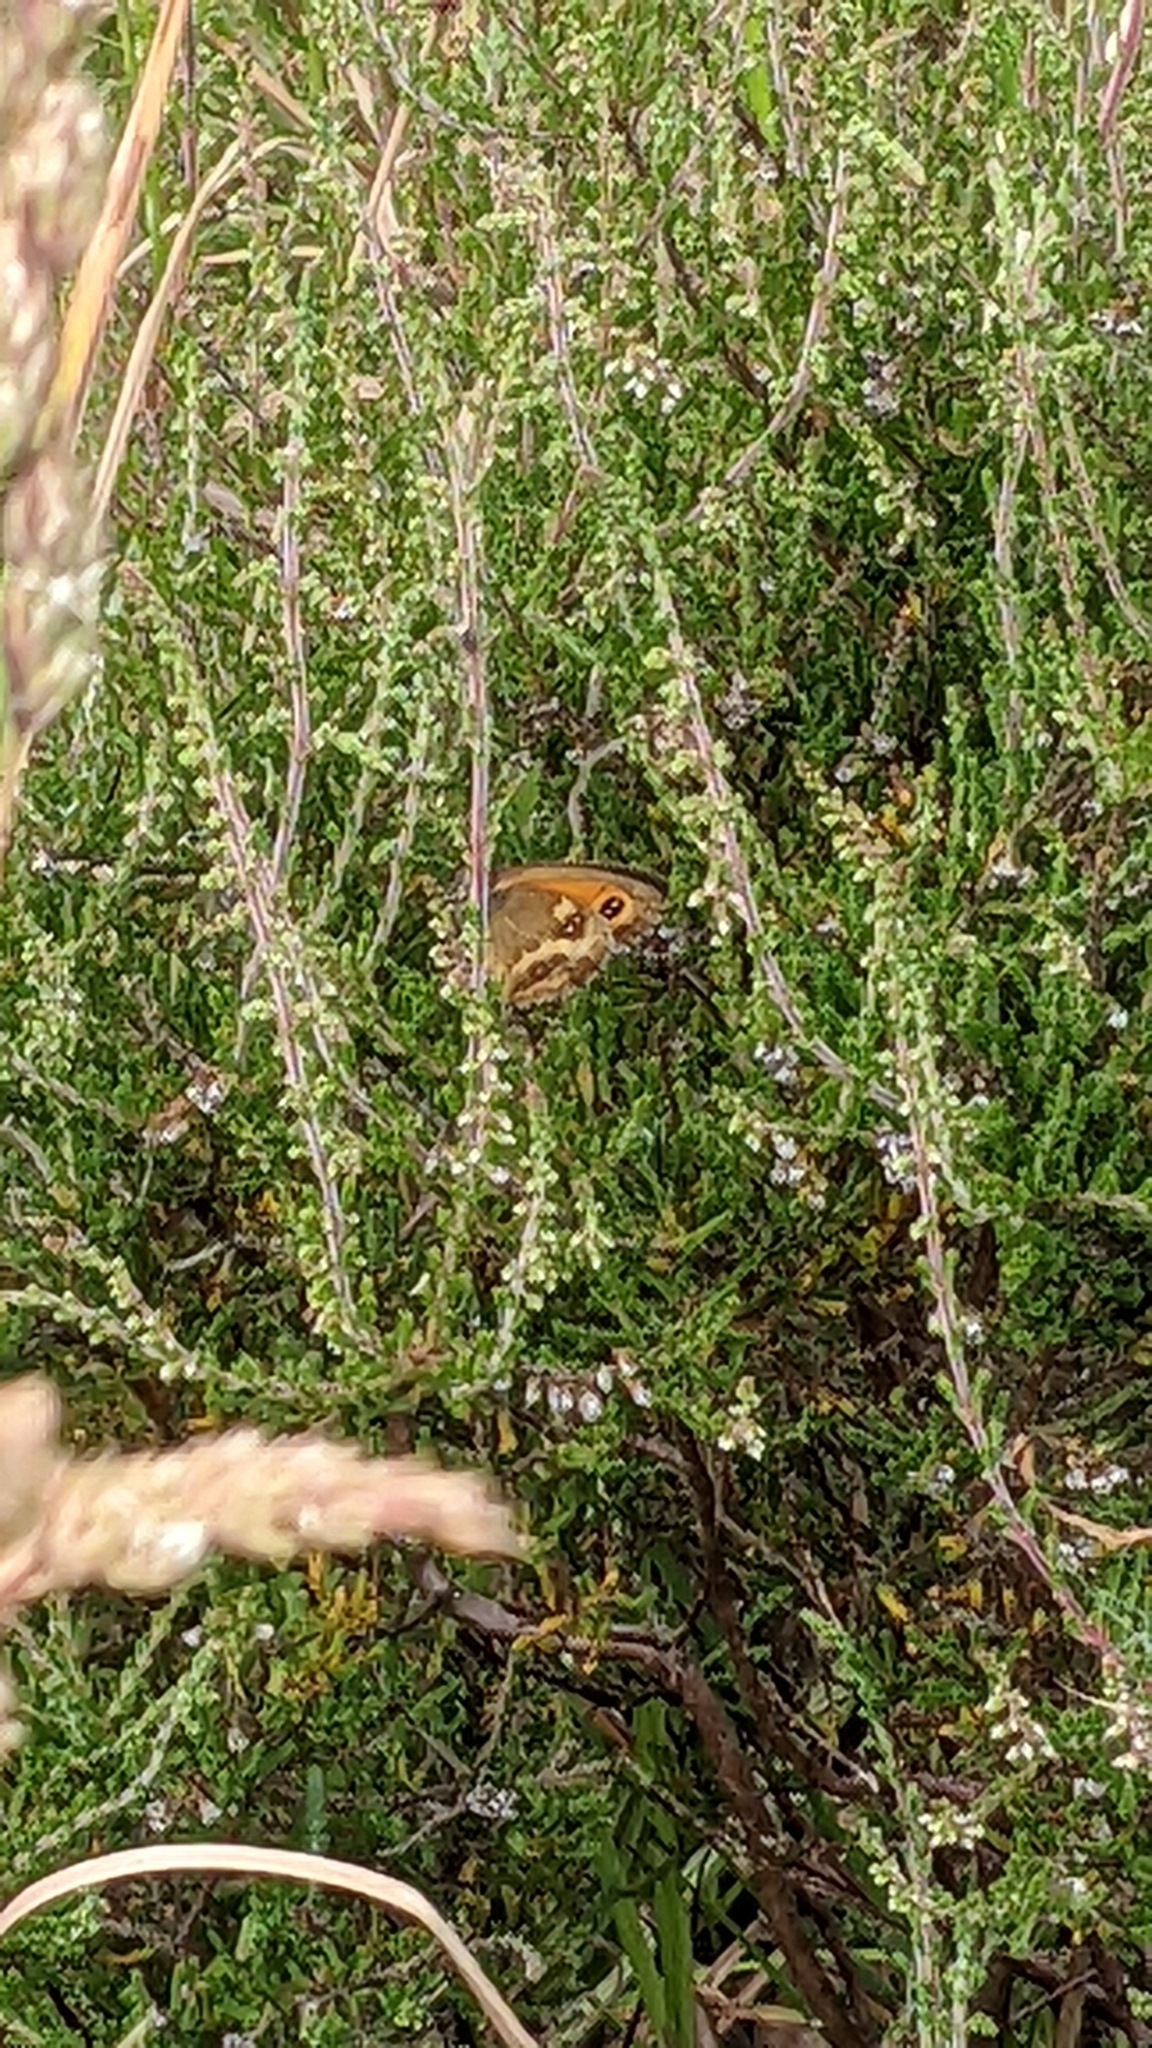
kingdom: Animalia
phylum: Arthropoda
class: Insecta
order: Lepidoptera
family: Nymphalidae
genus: Pyronia
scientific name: Pyronia tithonus
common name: Gatekeeper
